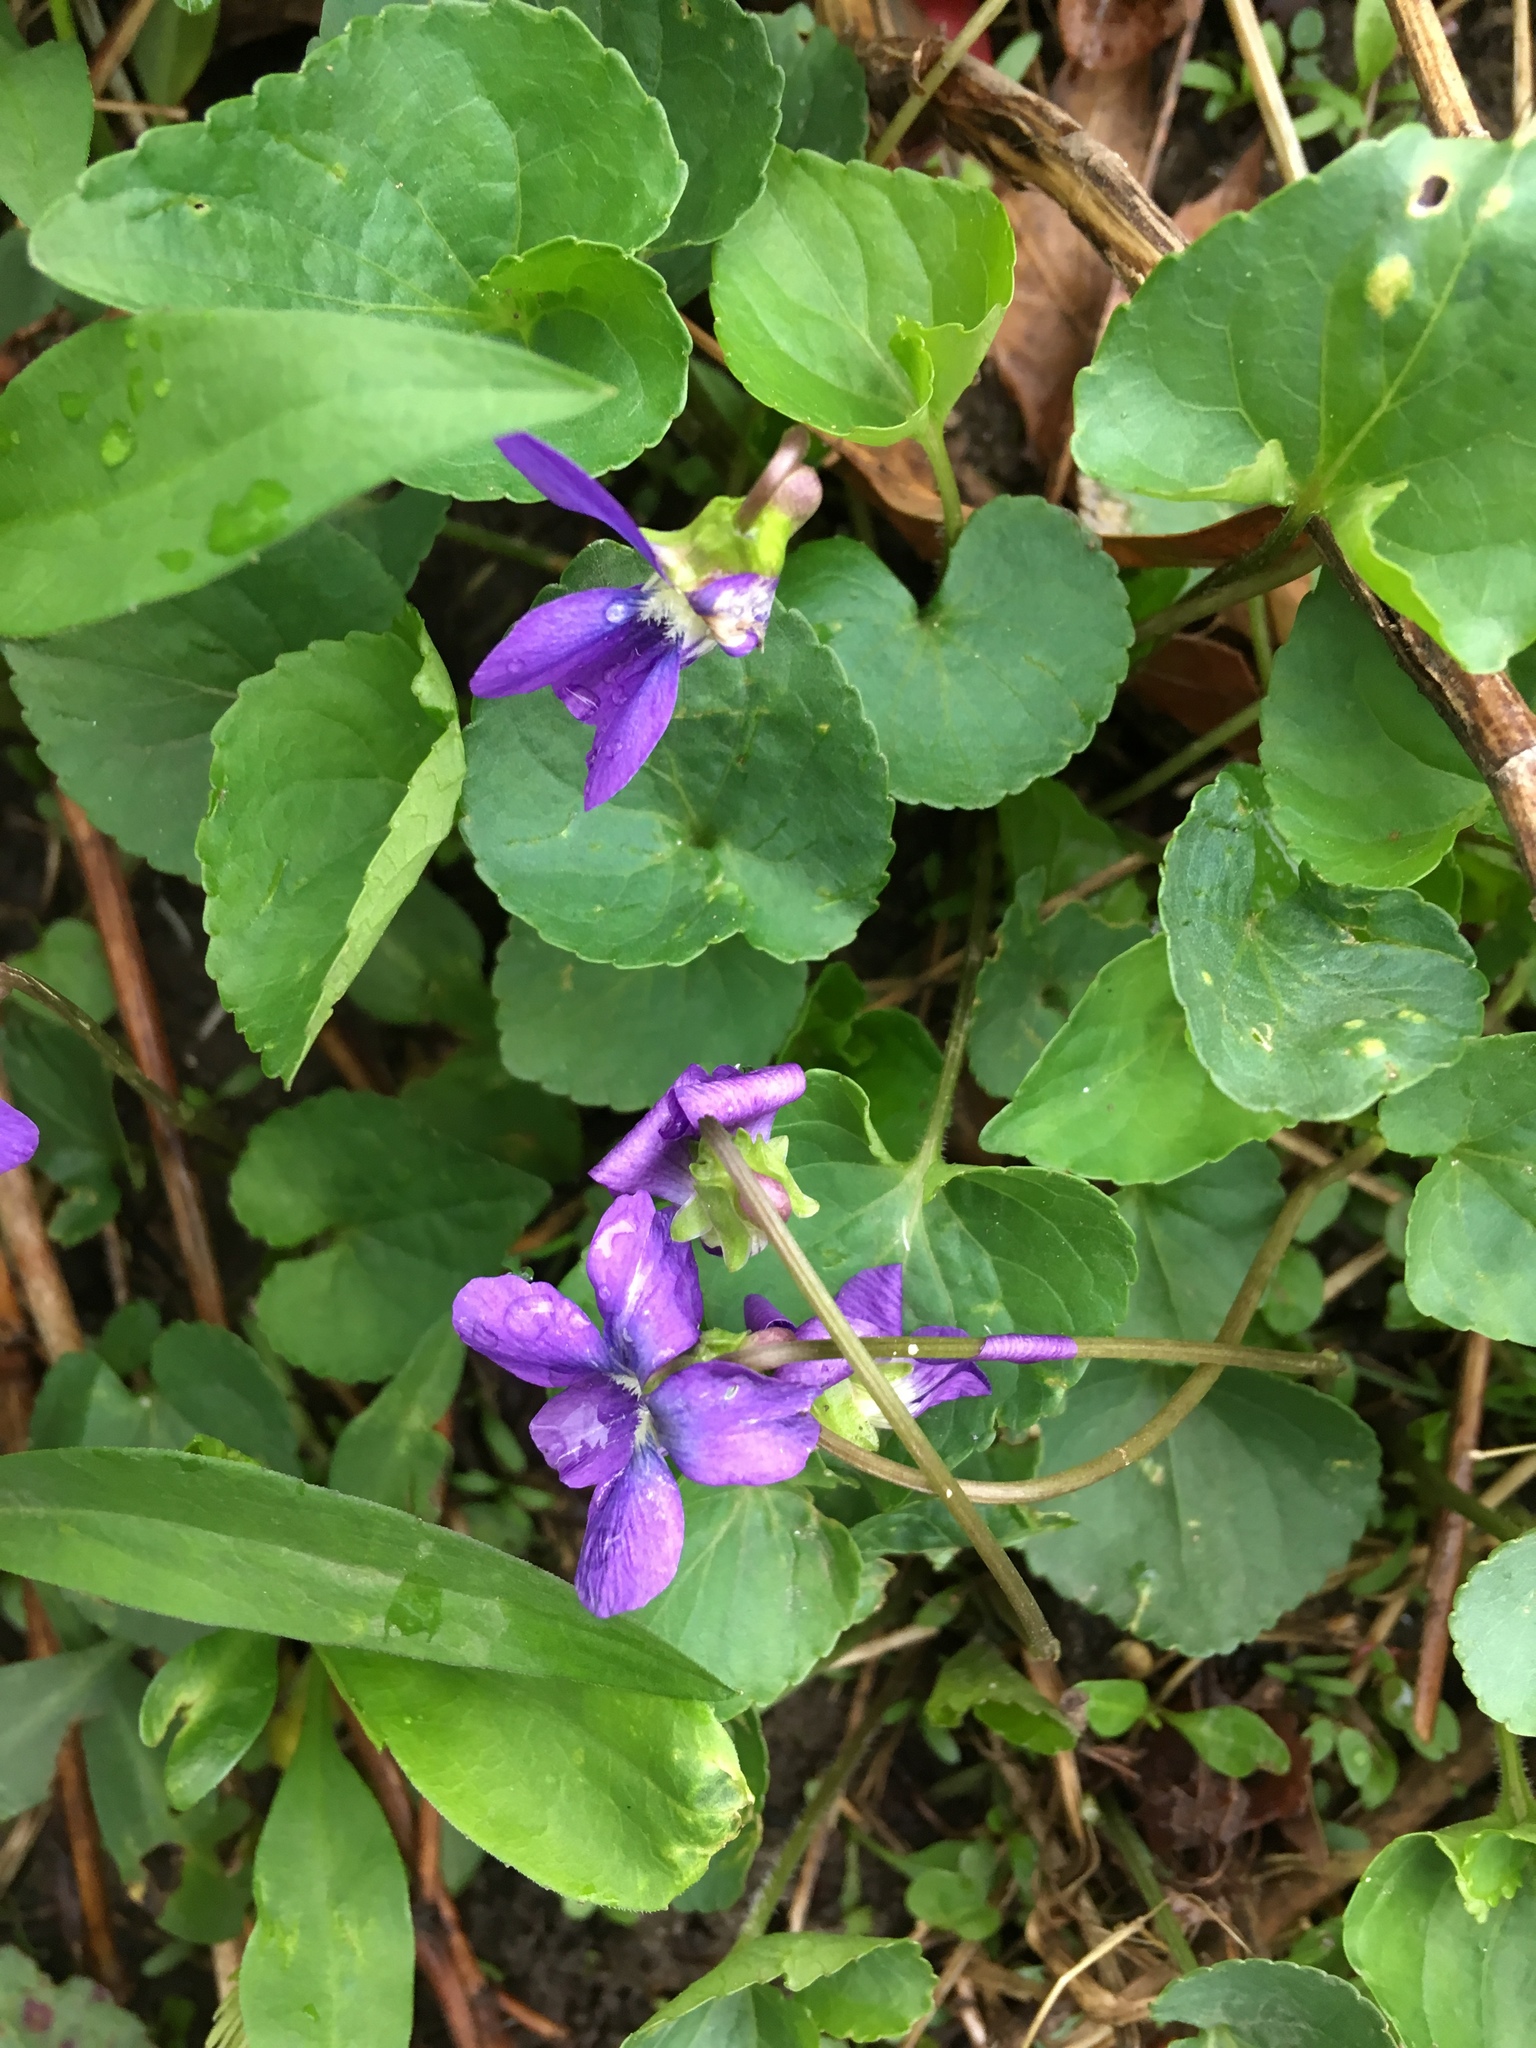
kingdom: Plantae
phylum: Tracheophyta
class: Magnoliopsida
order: Malpighiales
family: Violaceae
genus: Viola
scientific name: Viola sororia
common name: Dooryard violet
